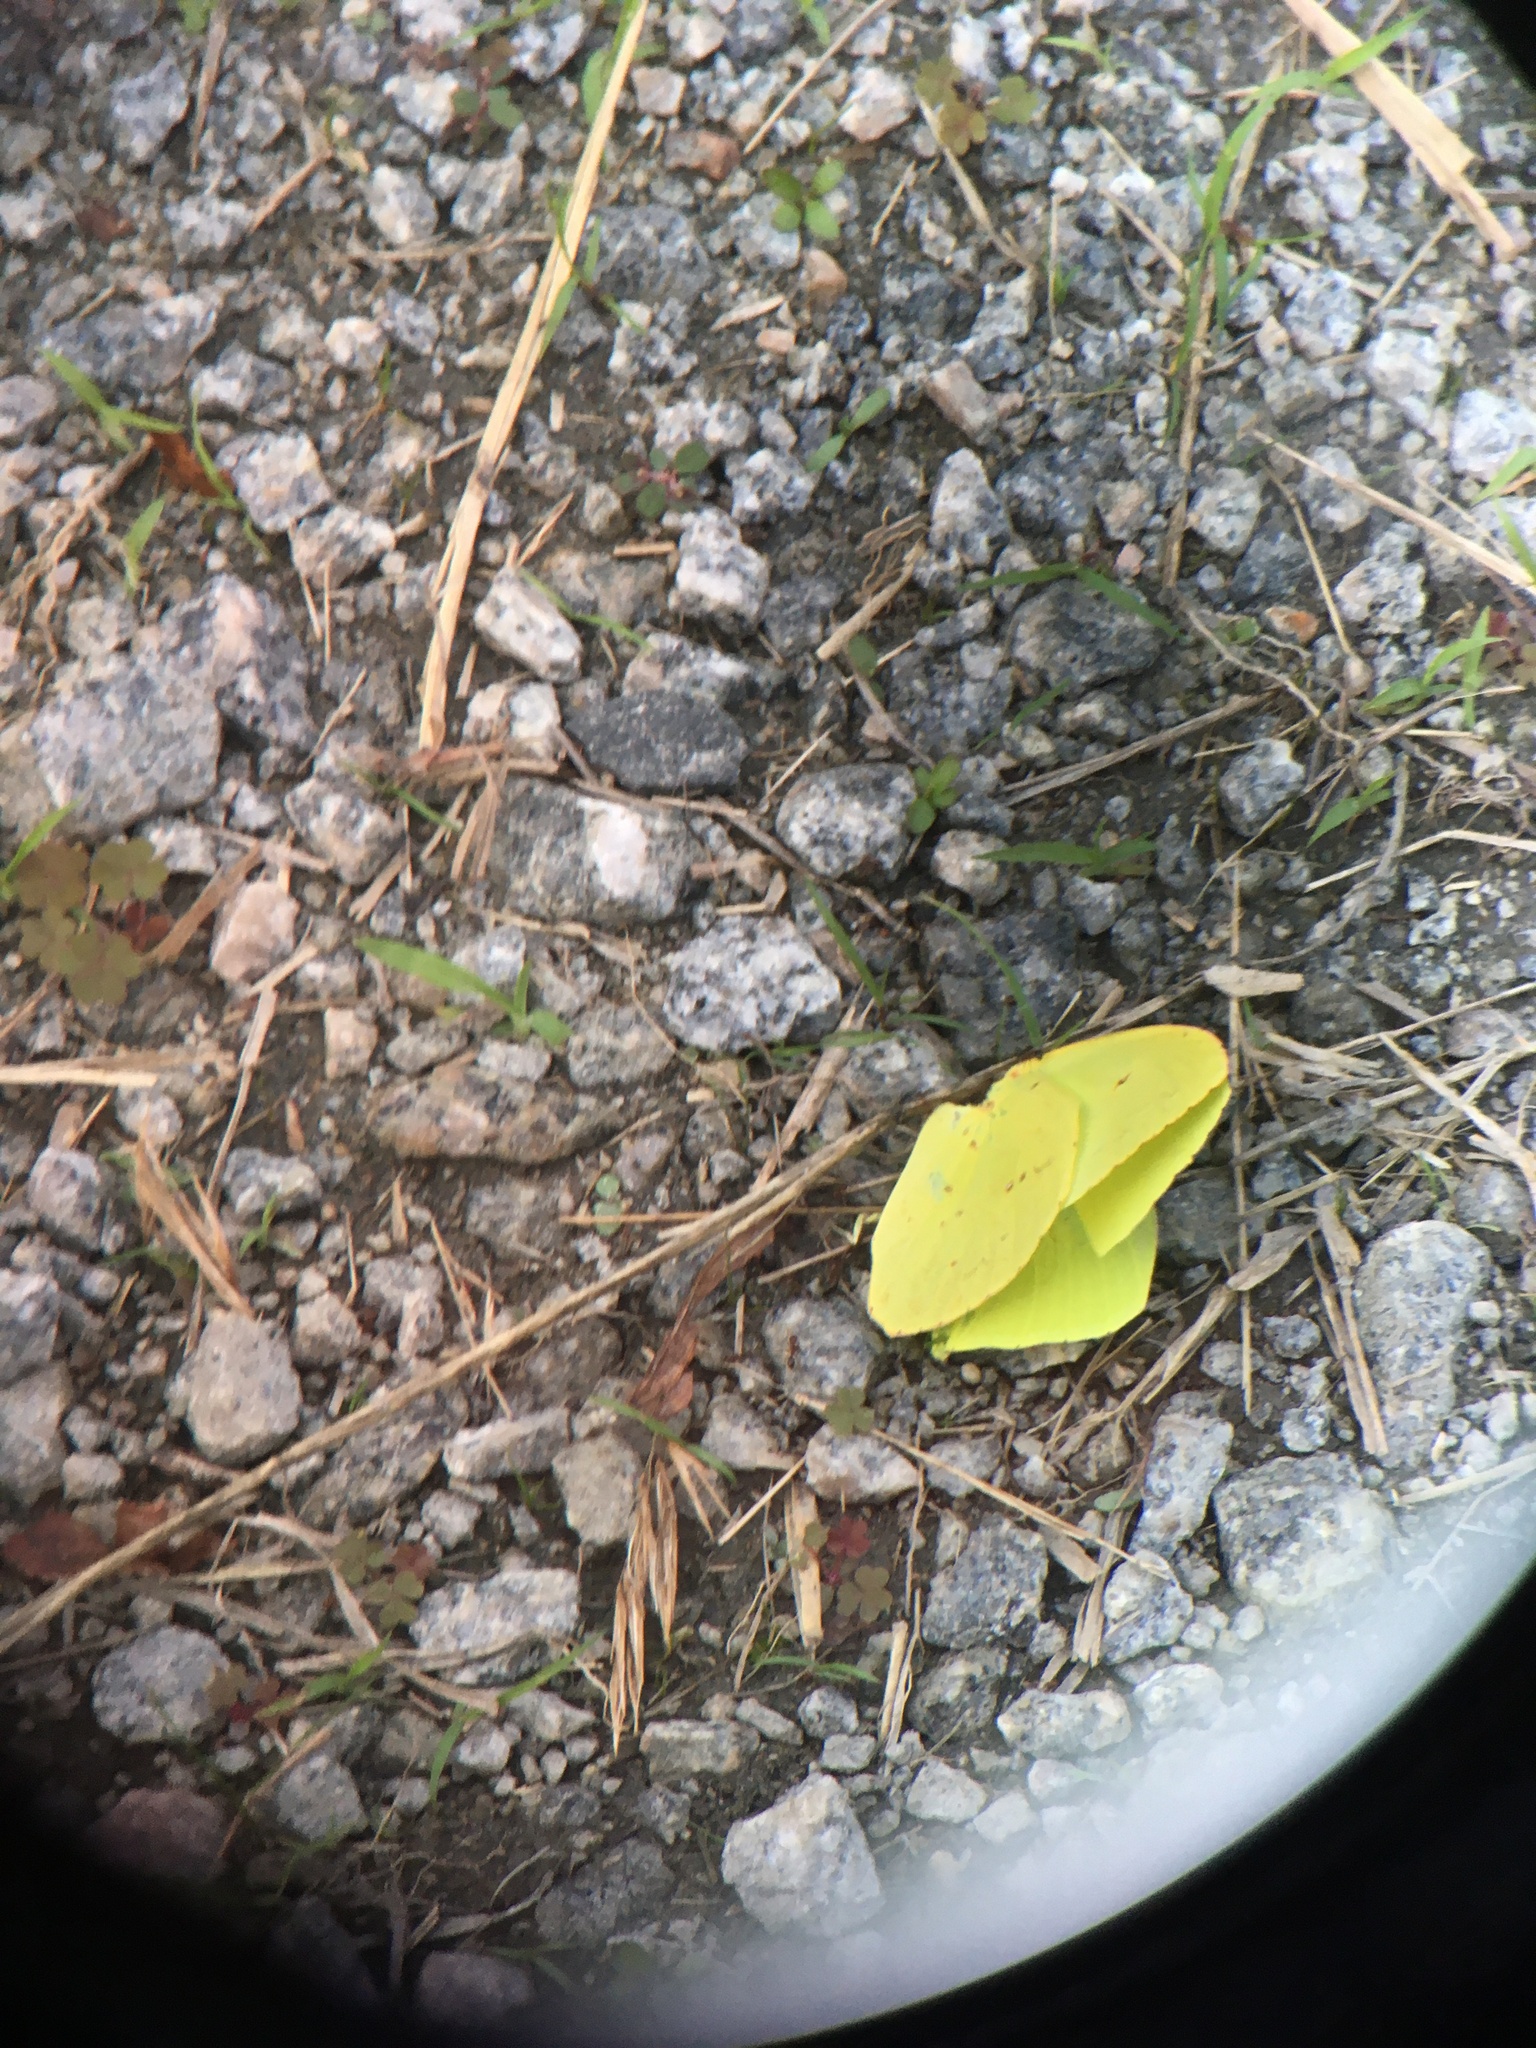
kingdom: Animalia
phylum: Arthropoda
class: Insecta
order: Lepidoptera
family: Pieridae
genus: Phoebis
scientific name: Phoebis sennae
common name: Cloudless sulphur
